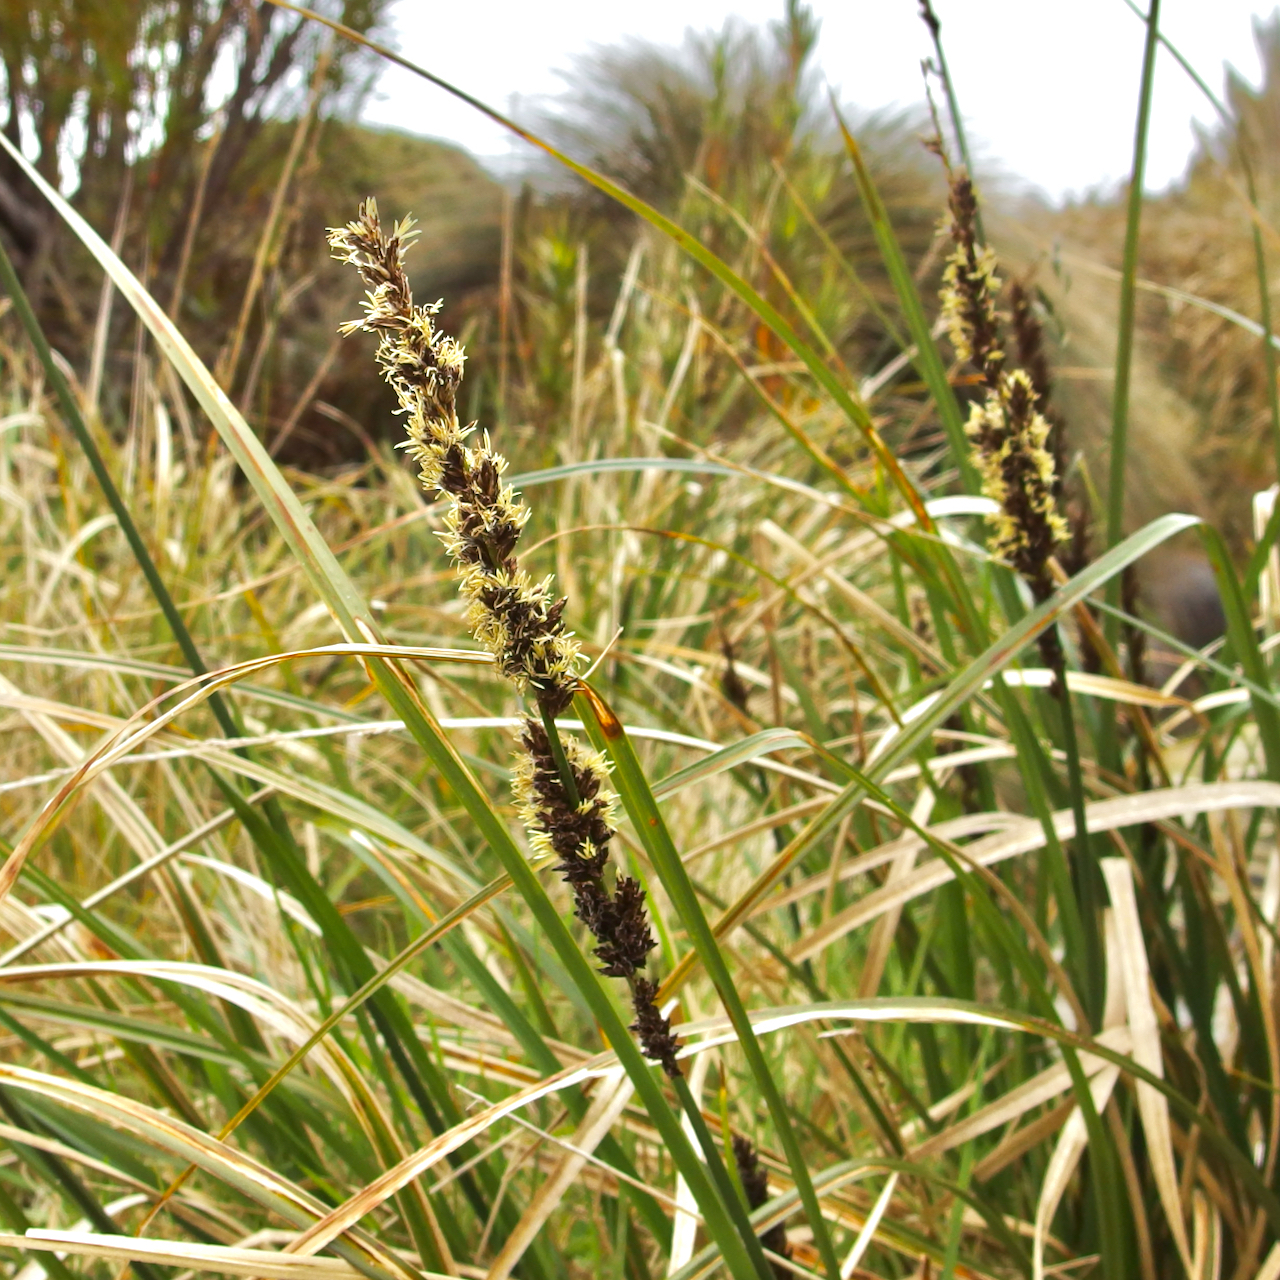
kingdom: Plantae
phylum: Tracheophyta
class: Liliopsida
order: Poales
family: Cyperaceae
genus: Carex
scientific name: Carex appressa
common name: Tussock sedge
